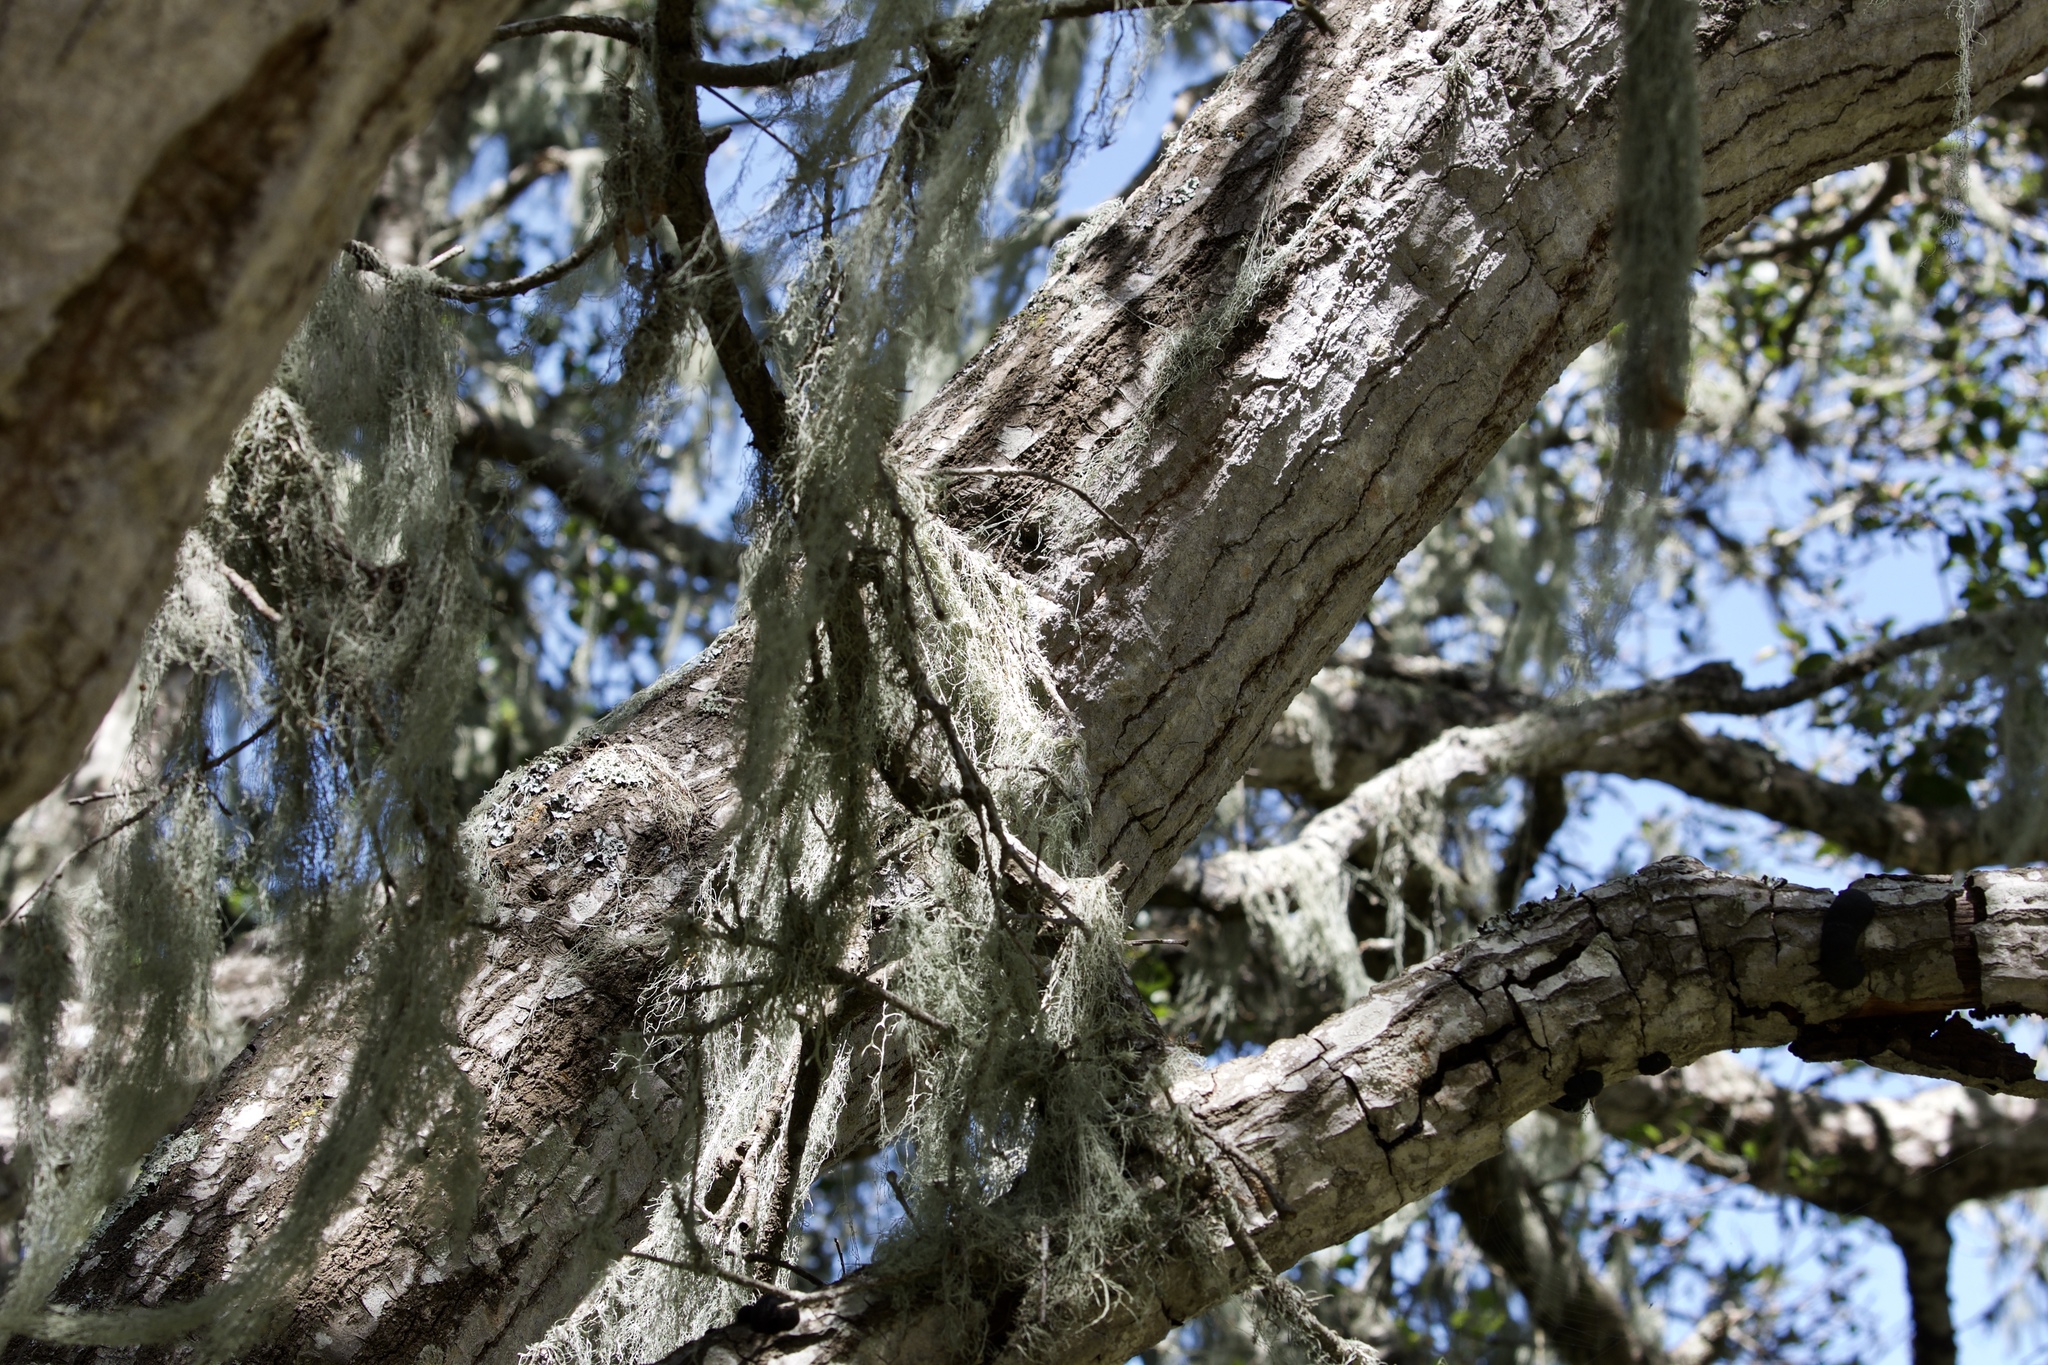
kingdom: Fungi
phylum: Ascomycota
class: Lecanoromycetes
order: Lecanorales
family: Ramalinaceae
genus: Ramalina
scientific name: Ramalina menziesii
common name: Lace lichen
